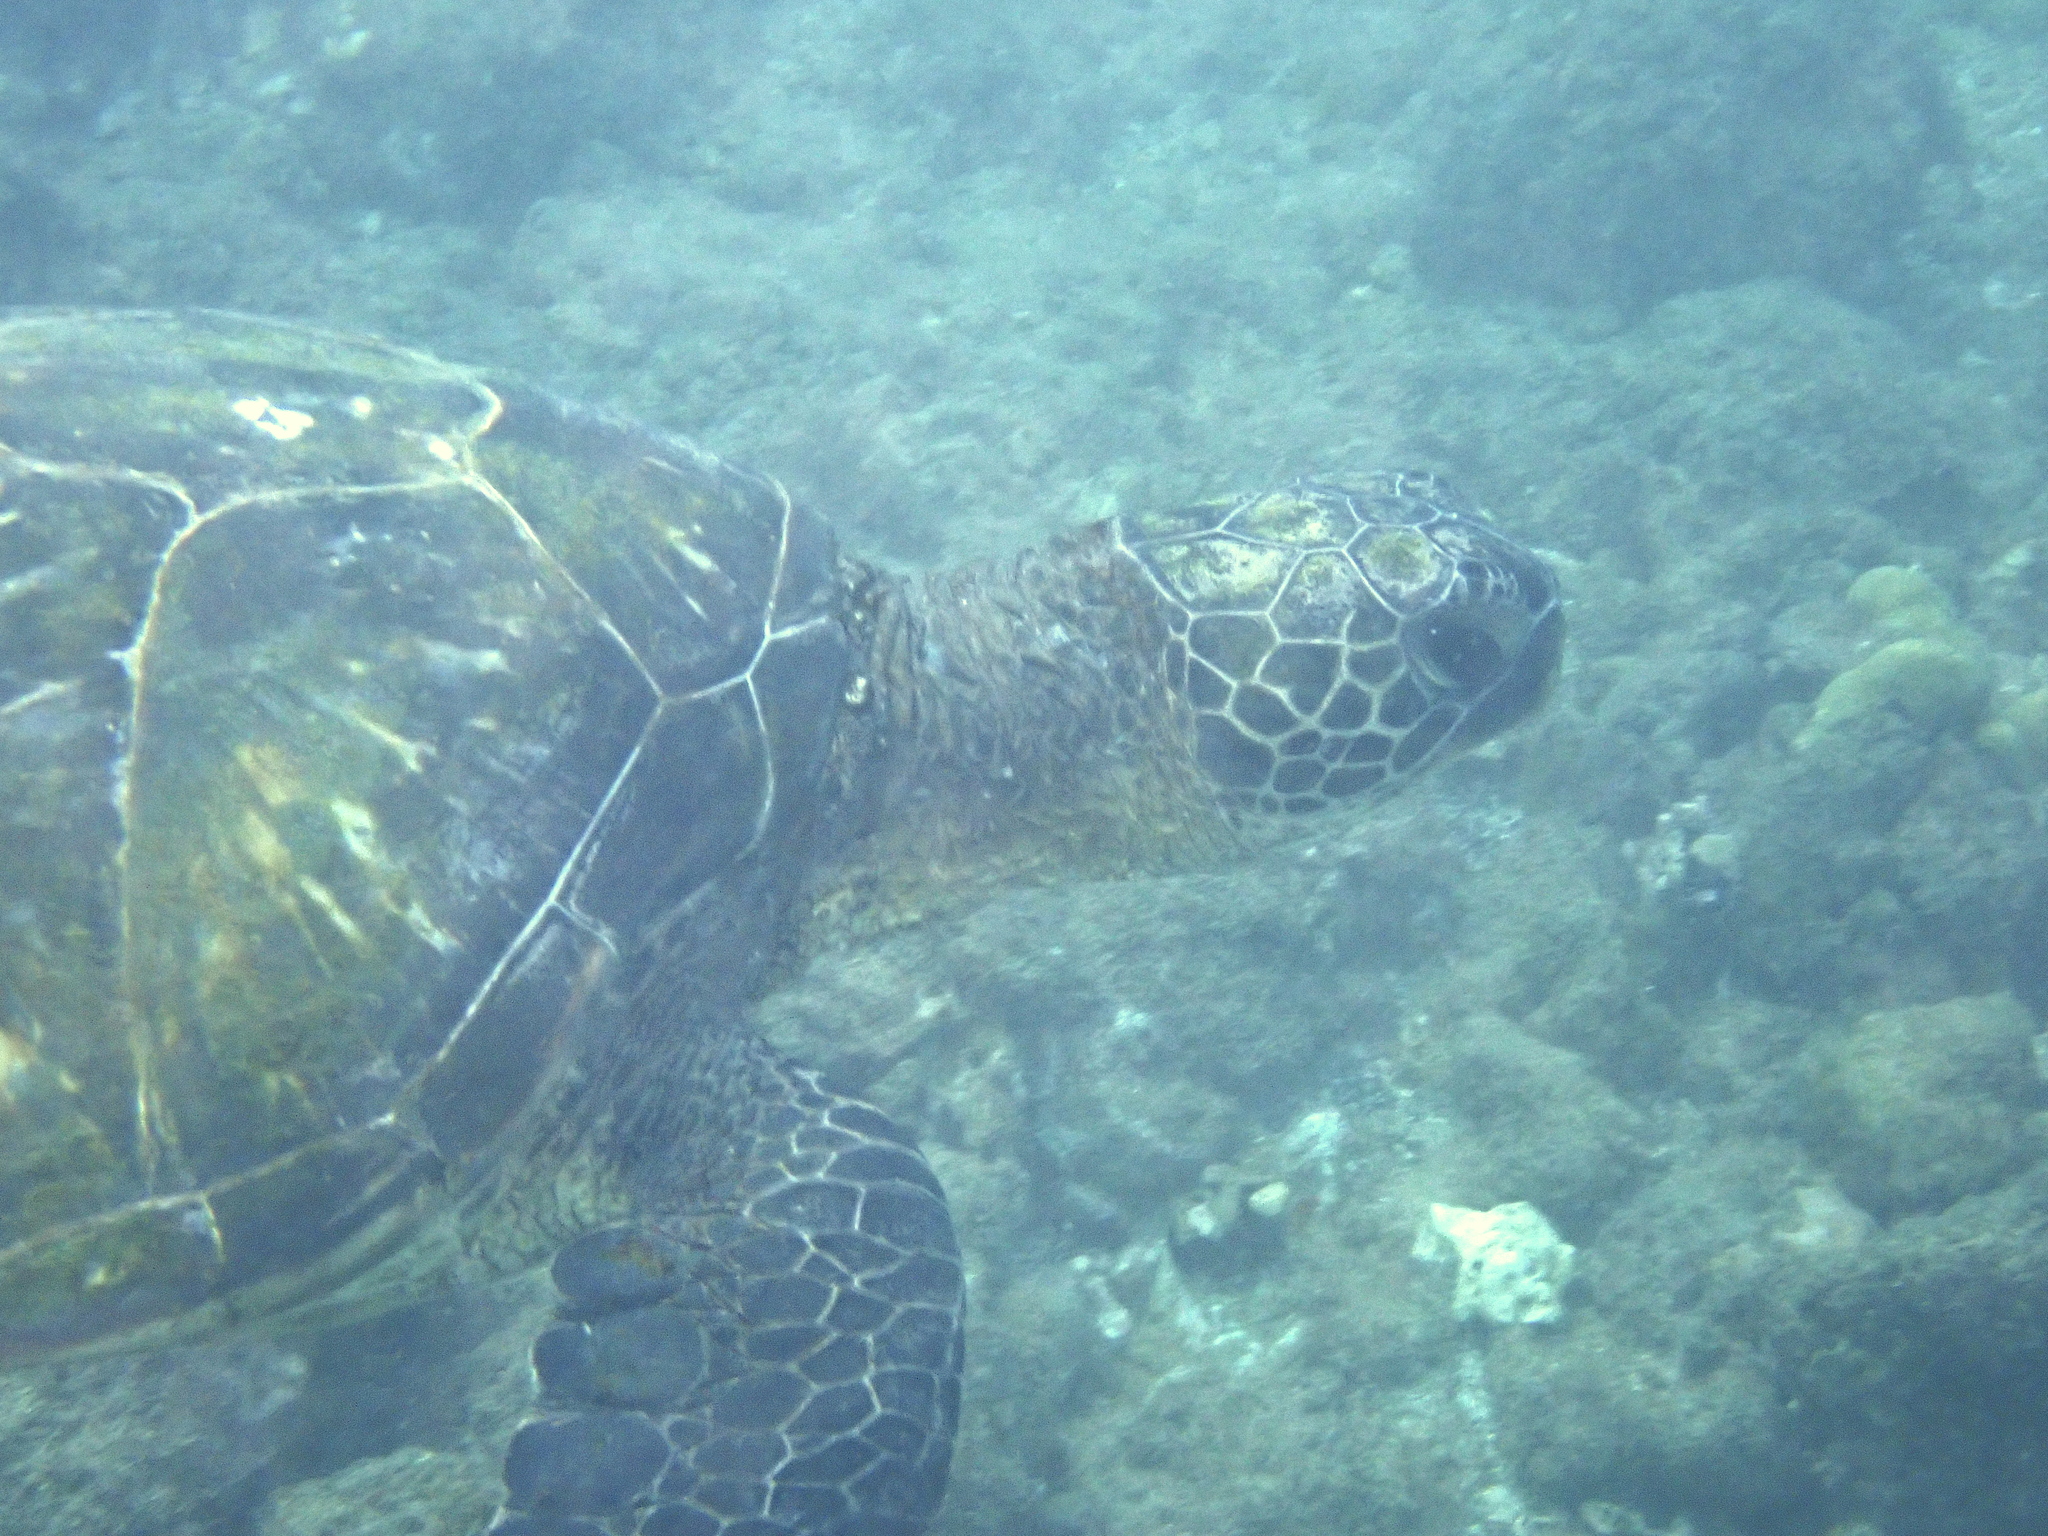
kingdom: Animalia
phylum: Chordata
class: Testudines
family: Cheloniidae
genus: Chelonia
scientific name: Chelonia mydas
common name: Green turtle
